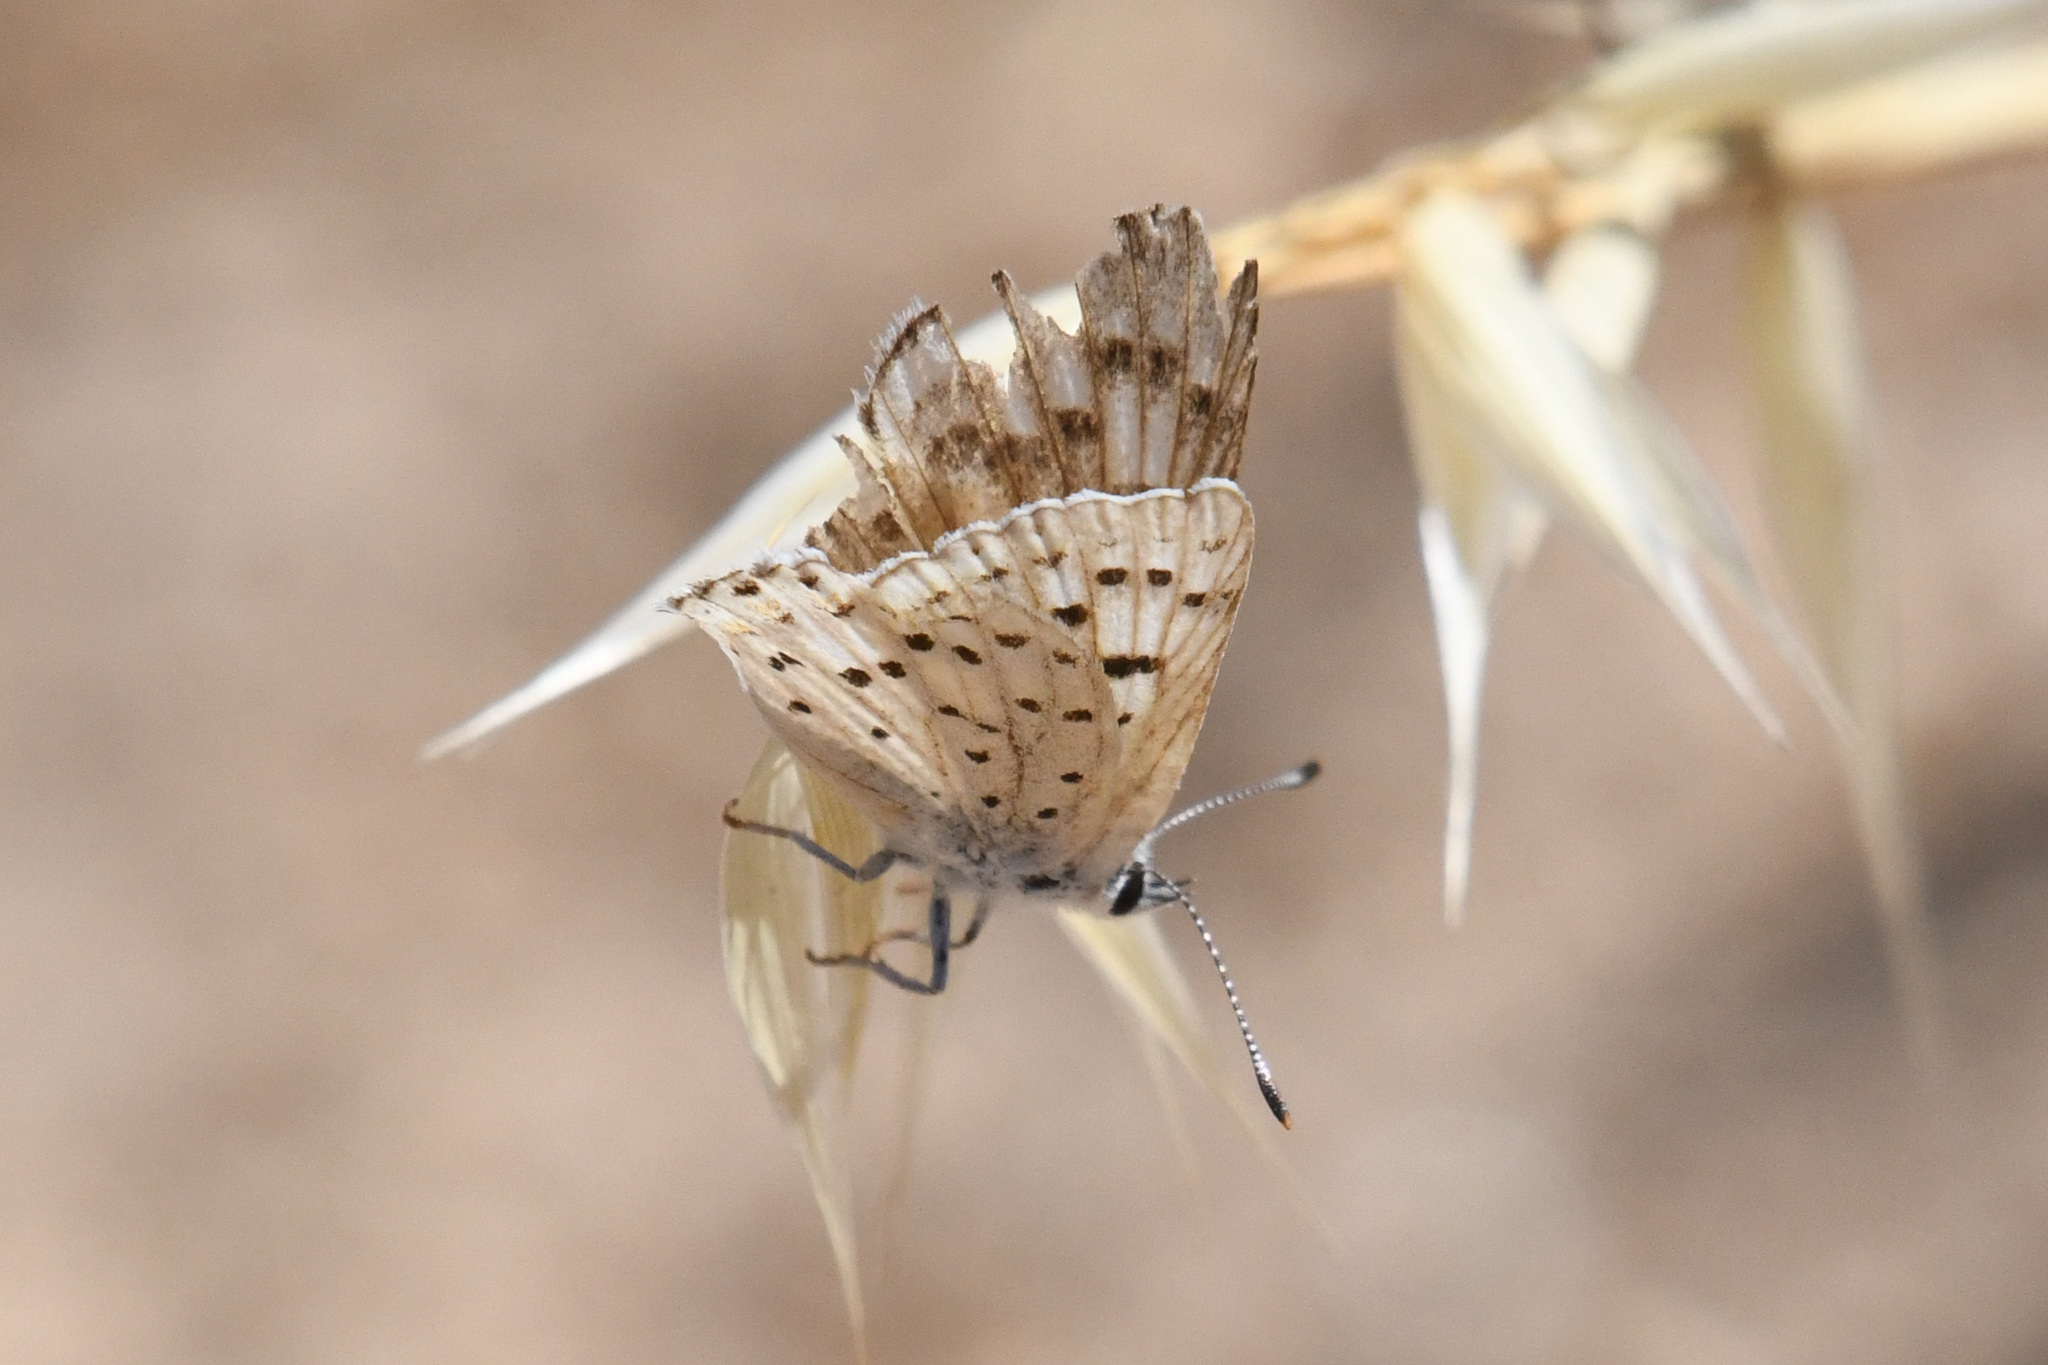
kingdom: Animalia
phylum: Arthropoda
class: Insecta
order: Lepidoptera
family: Lycaenidae
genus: Tharsalea
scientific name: Tharsalea gorgon
